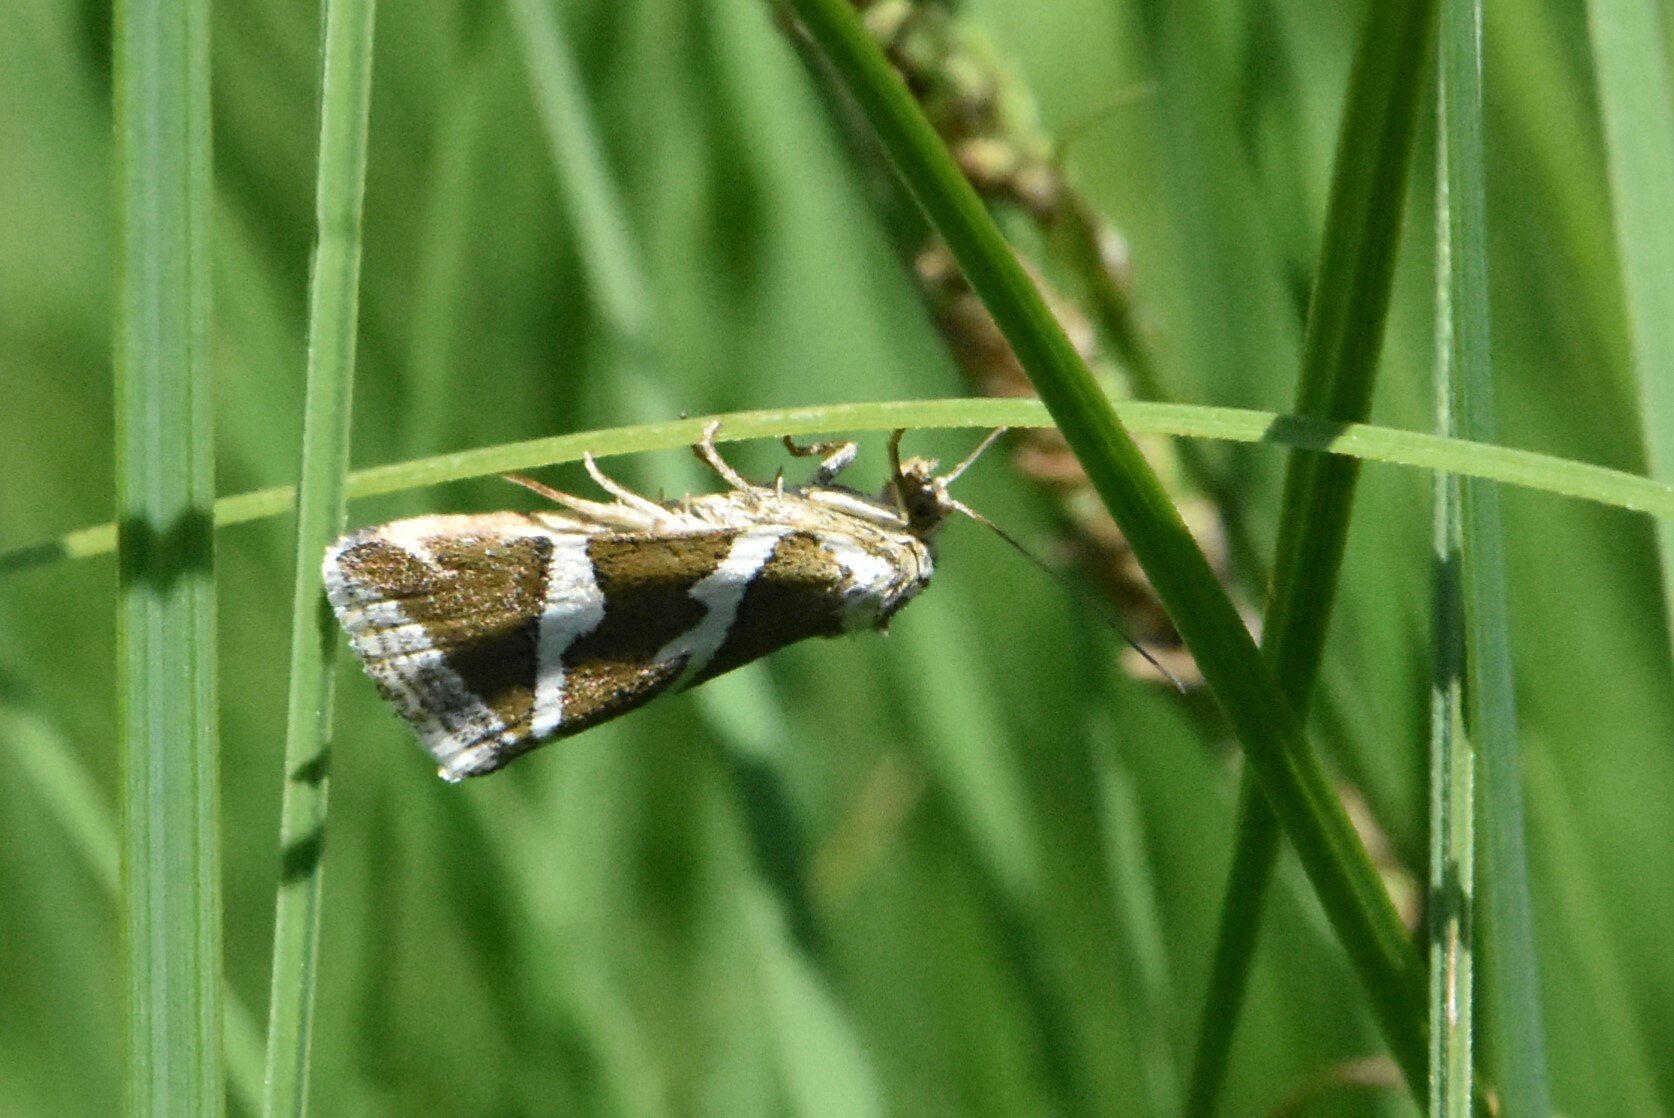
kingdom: Animalia
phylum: Arthropoda
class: Insecta
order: Lepidoptera
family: Noctuidae
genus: Deltote
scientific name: Deltote bankiana
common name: Silver barred
